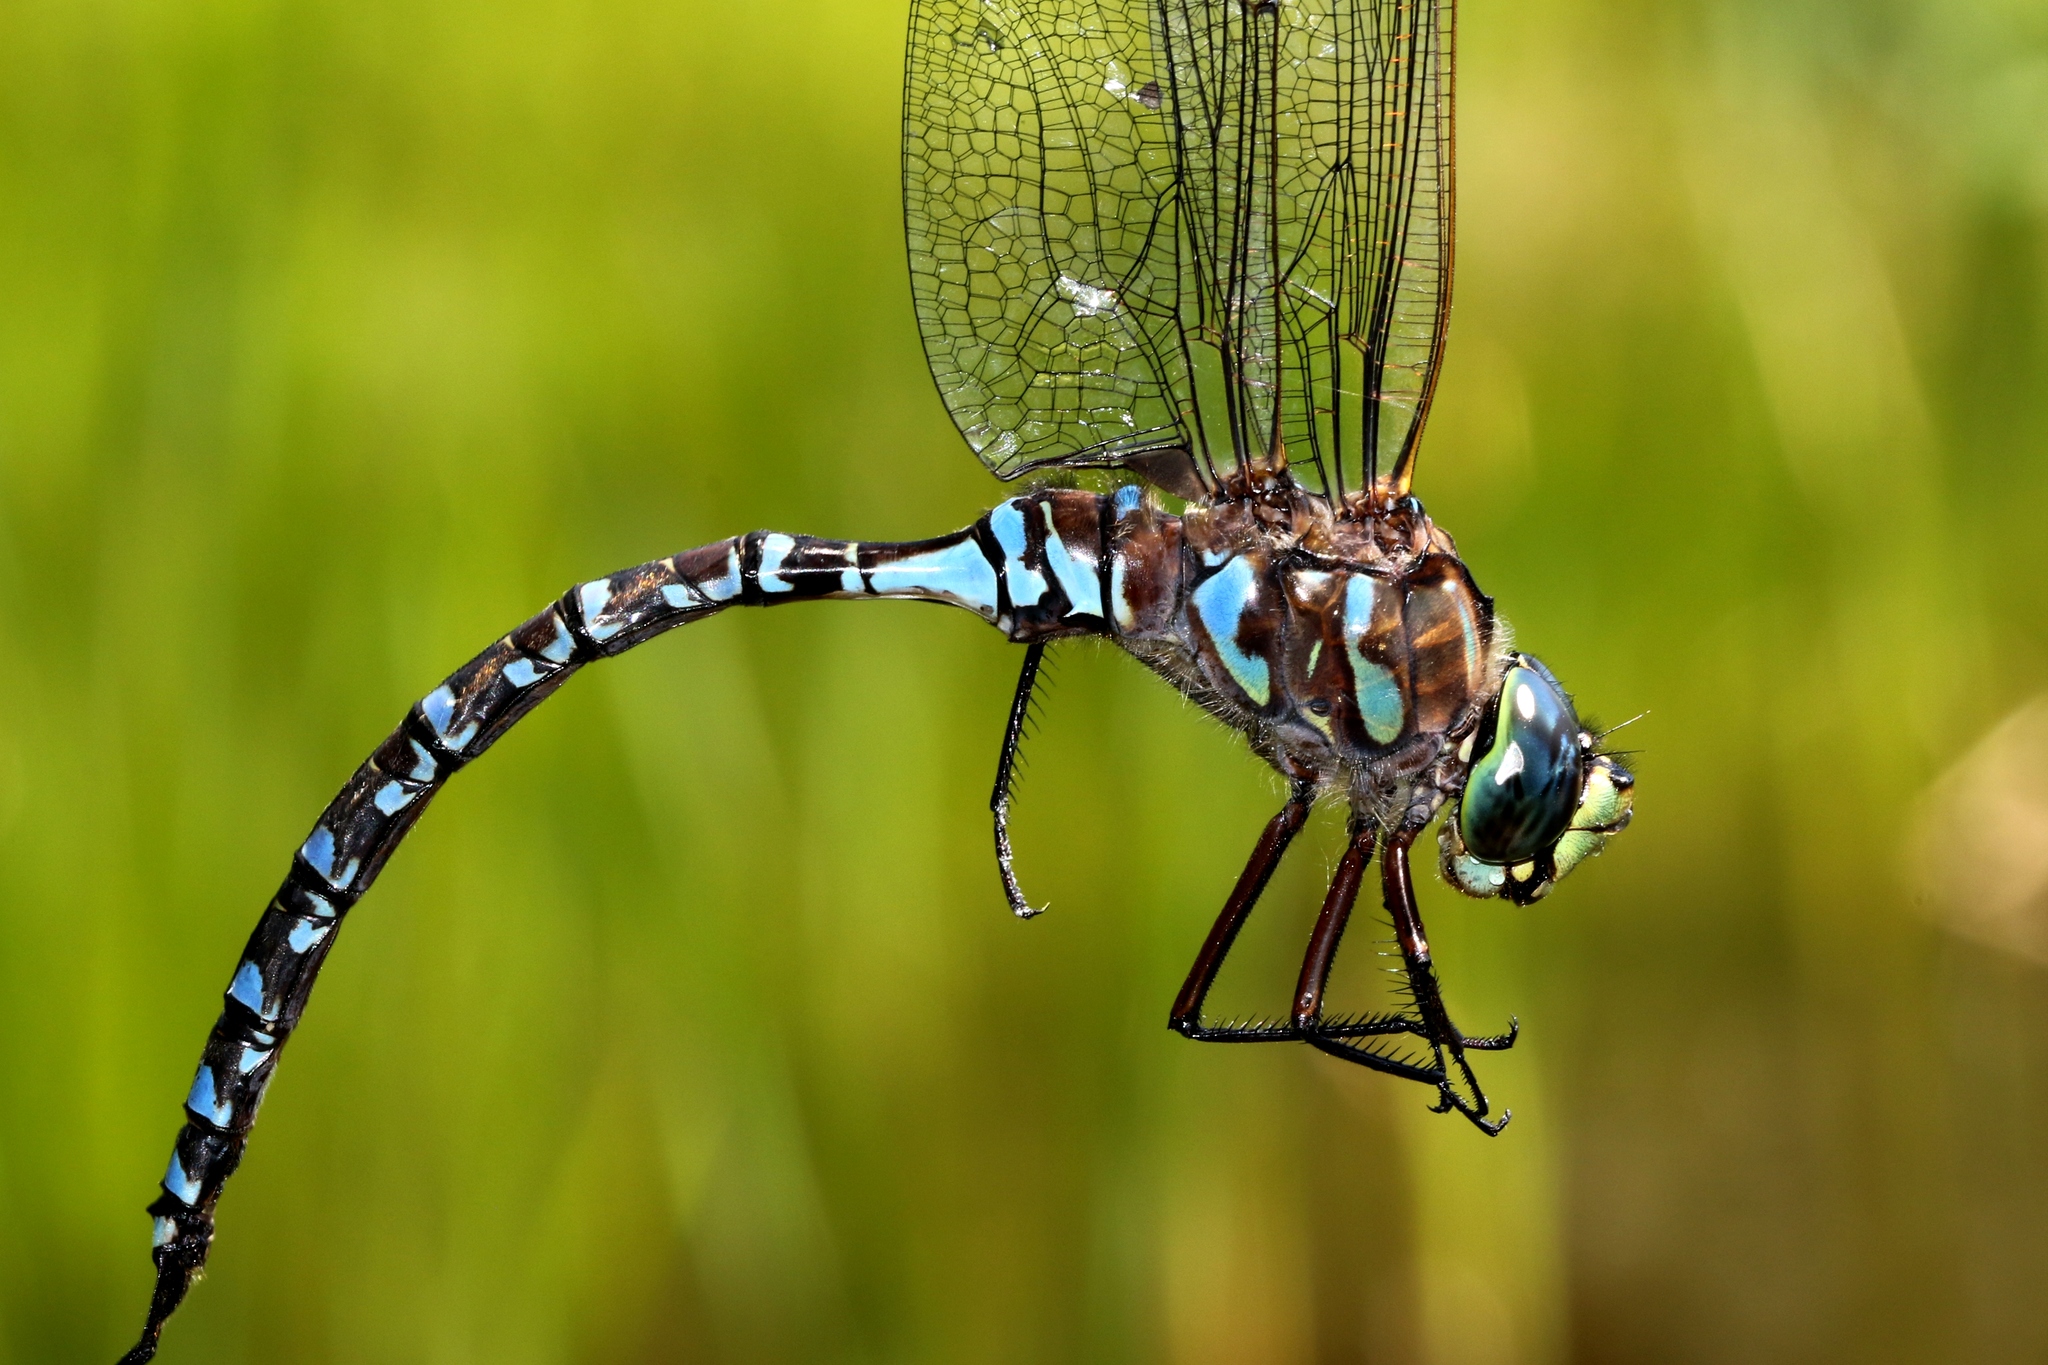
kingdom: Animalia
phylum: Arthropoda
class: Insecta
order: Odonata
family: Aeshnidae
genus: Aeshna
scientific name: Aeshna eremita
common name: Lake darner
